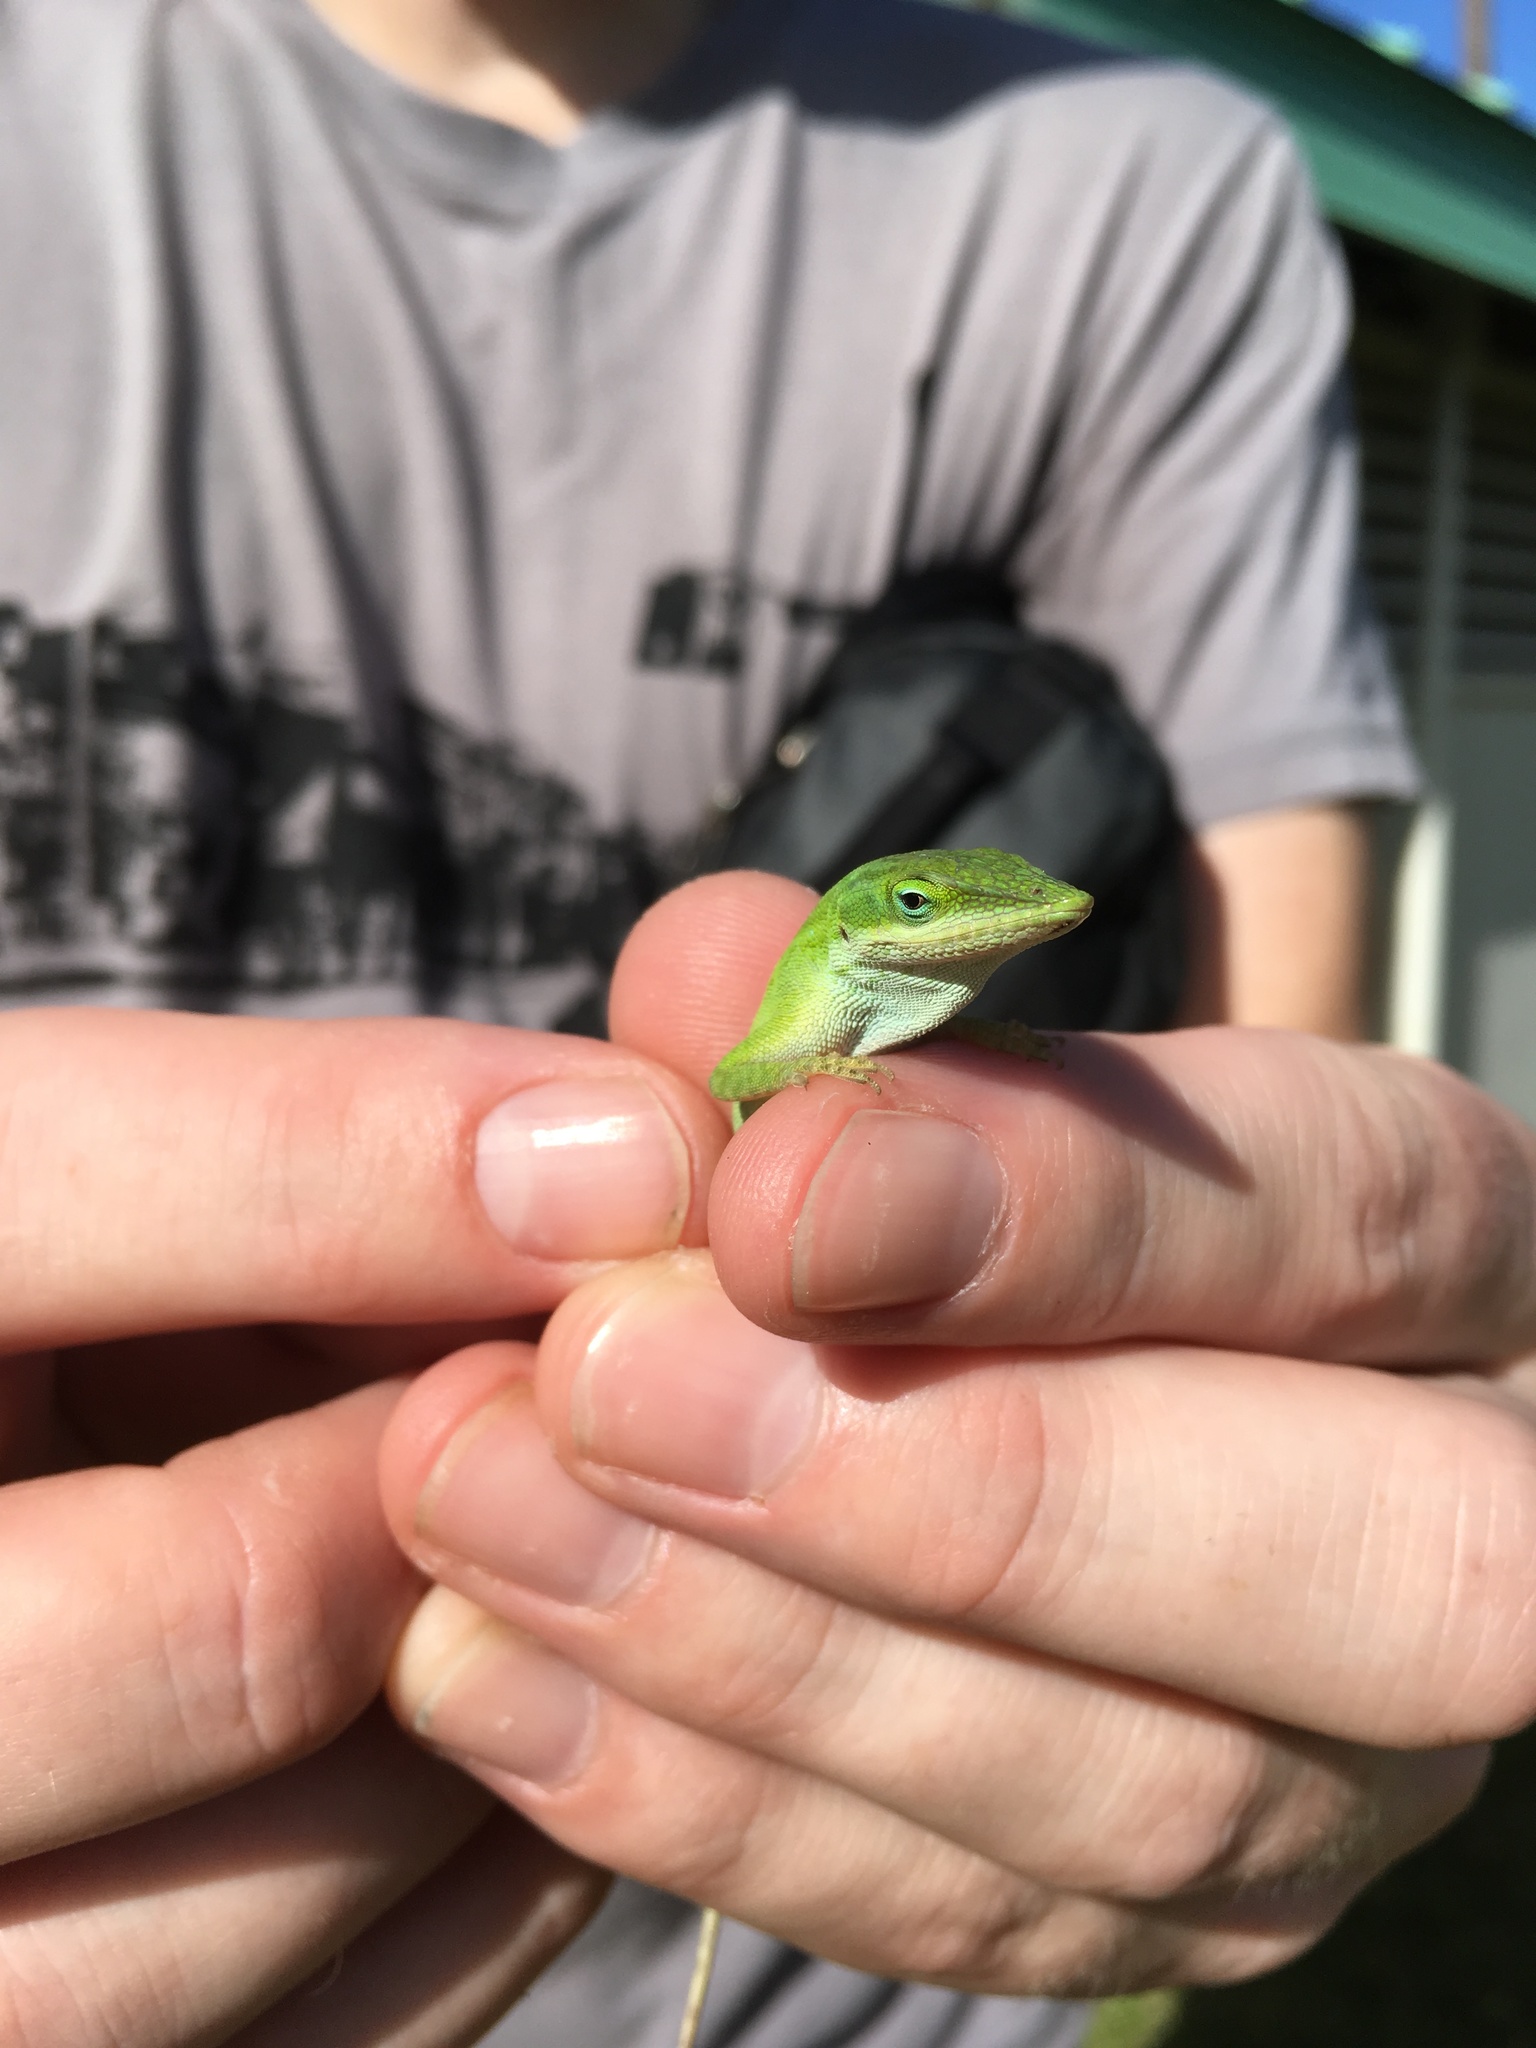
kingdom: Animalia
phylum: Chordata
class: Squamata
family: Dactyloidae
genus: Anolis
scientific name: Anolis carolinensis
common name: Green anole
